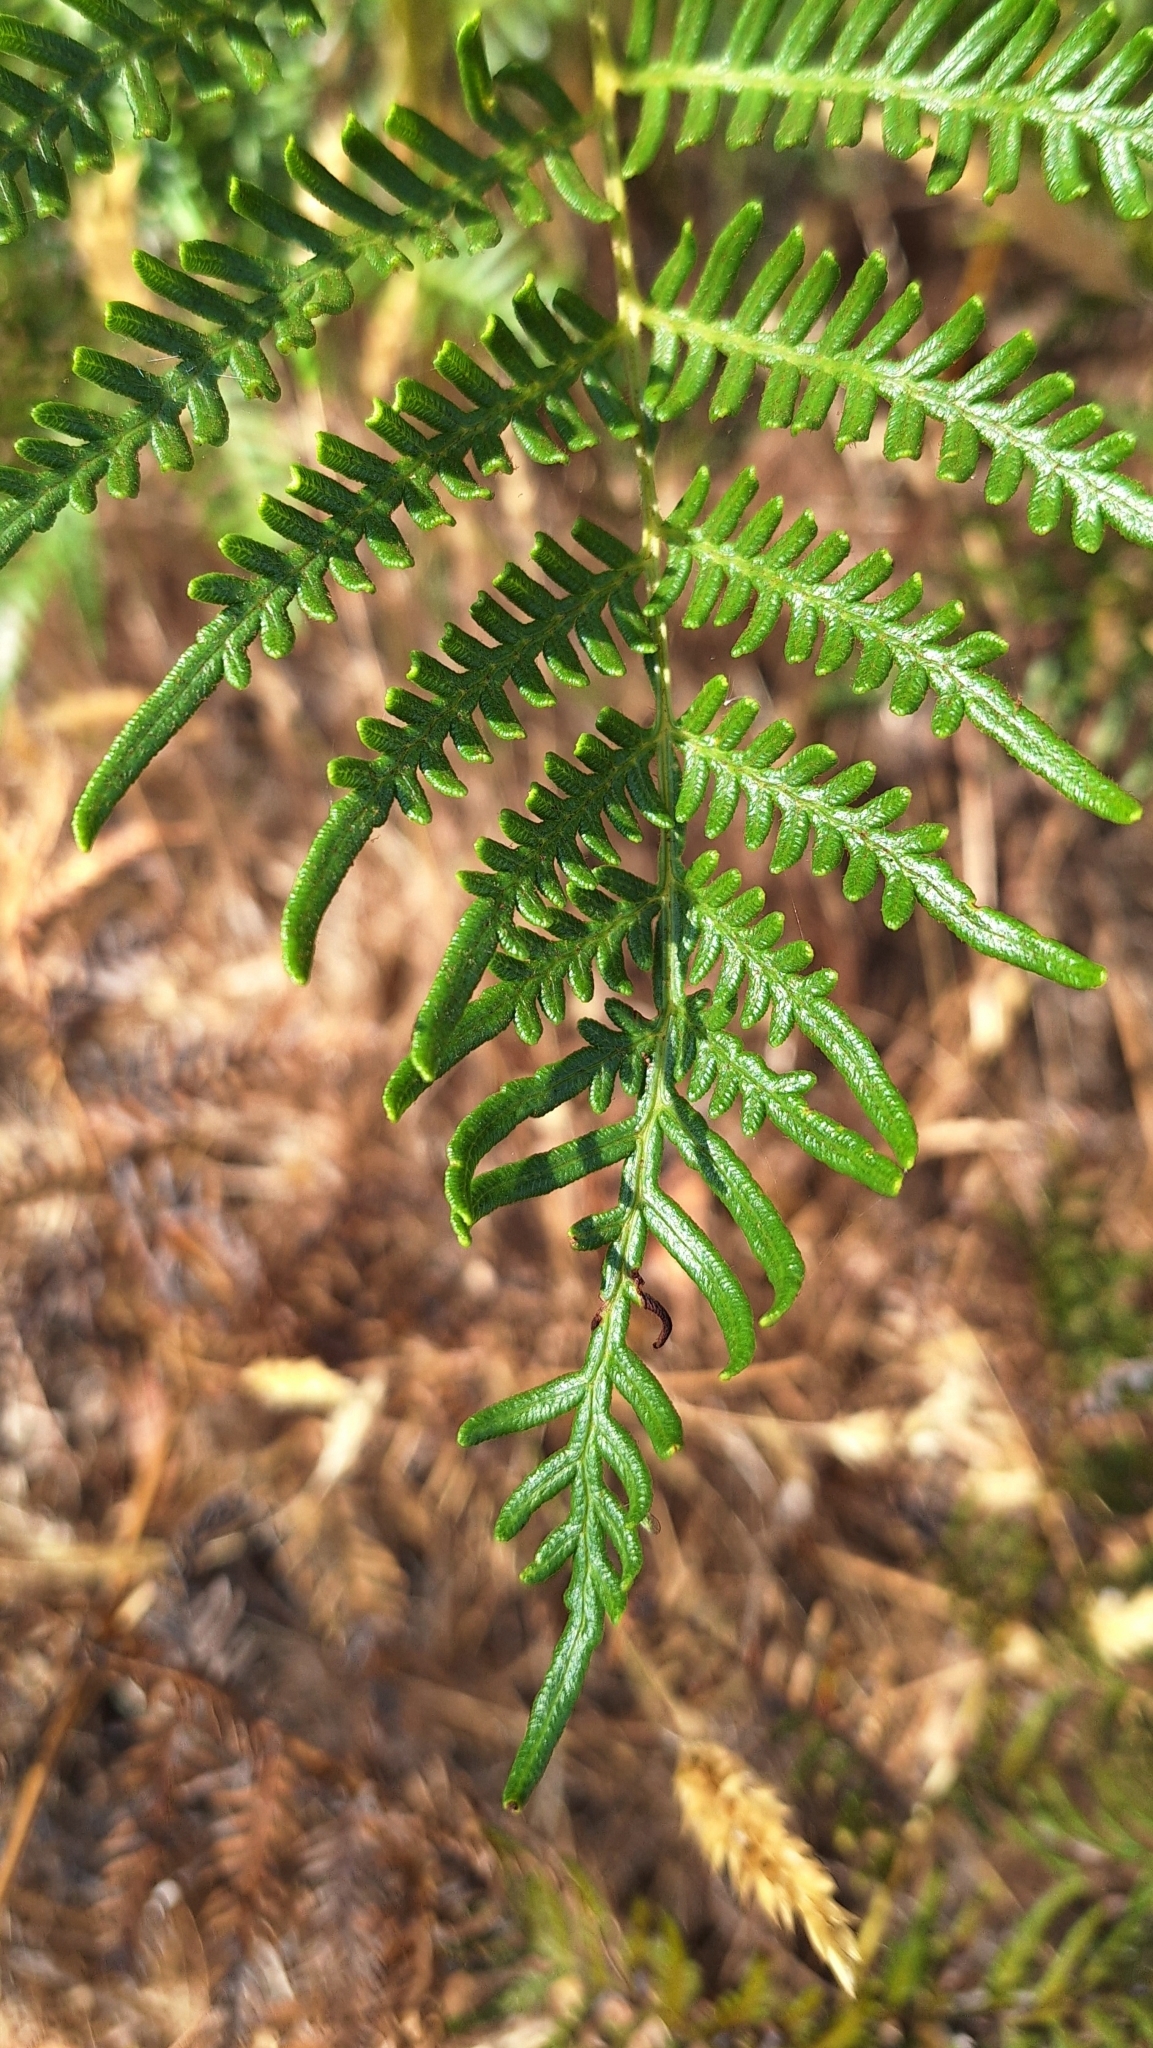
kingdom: Plantae
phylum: Tracheophyta
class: Polypodiopsida
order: Polypodiales
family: Dennstaedtiaceae
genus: Pteridium
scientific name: Pteridium esculentum
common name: Bracken fern
